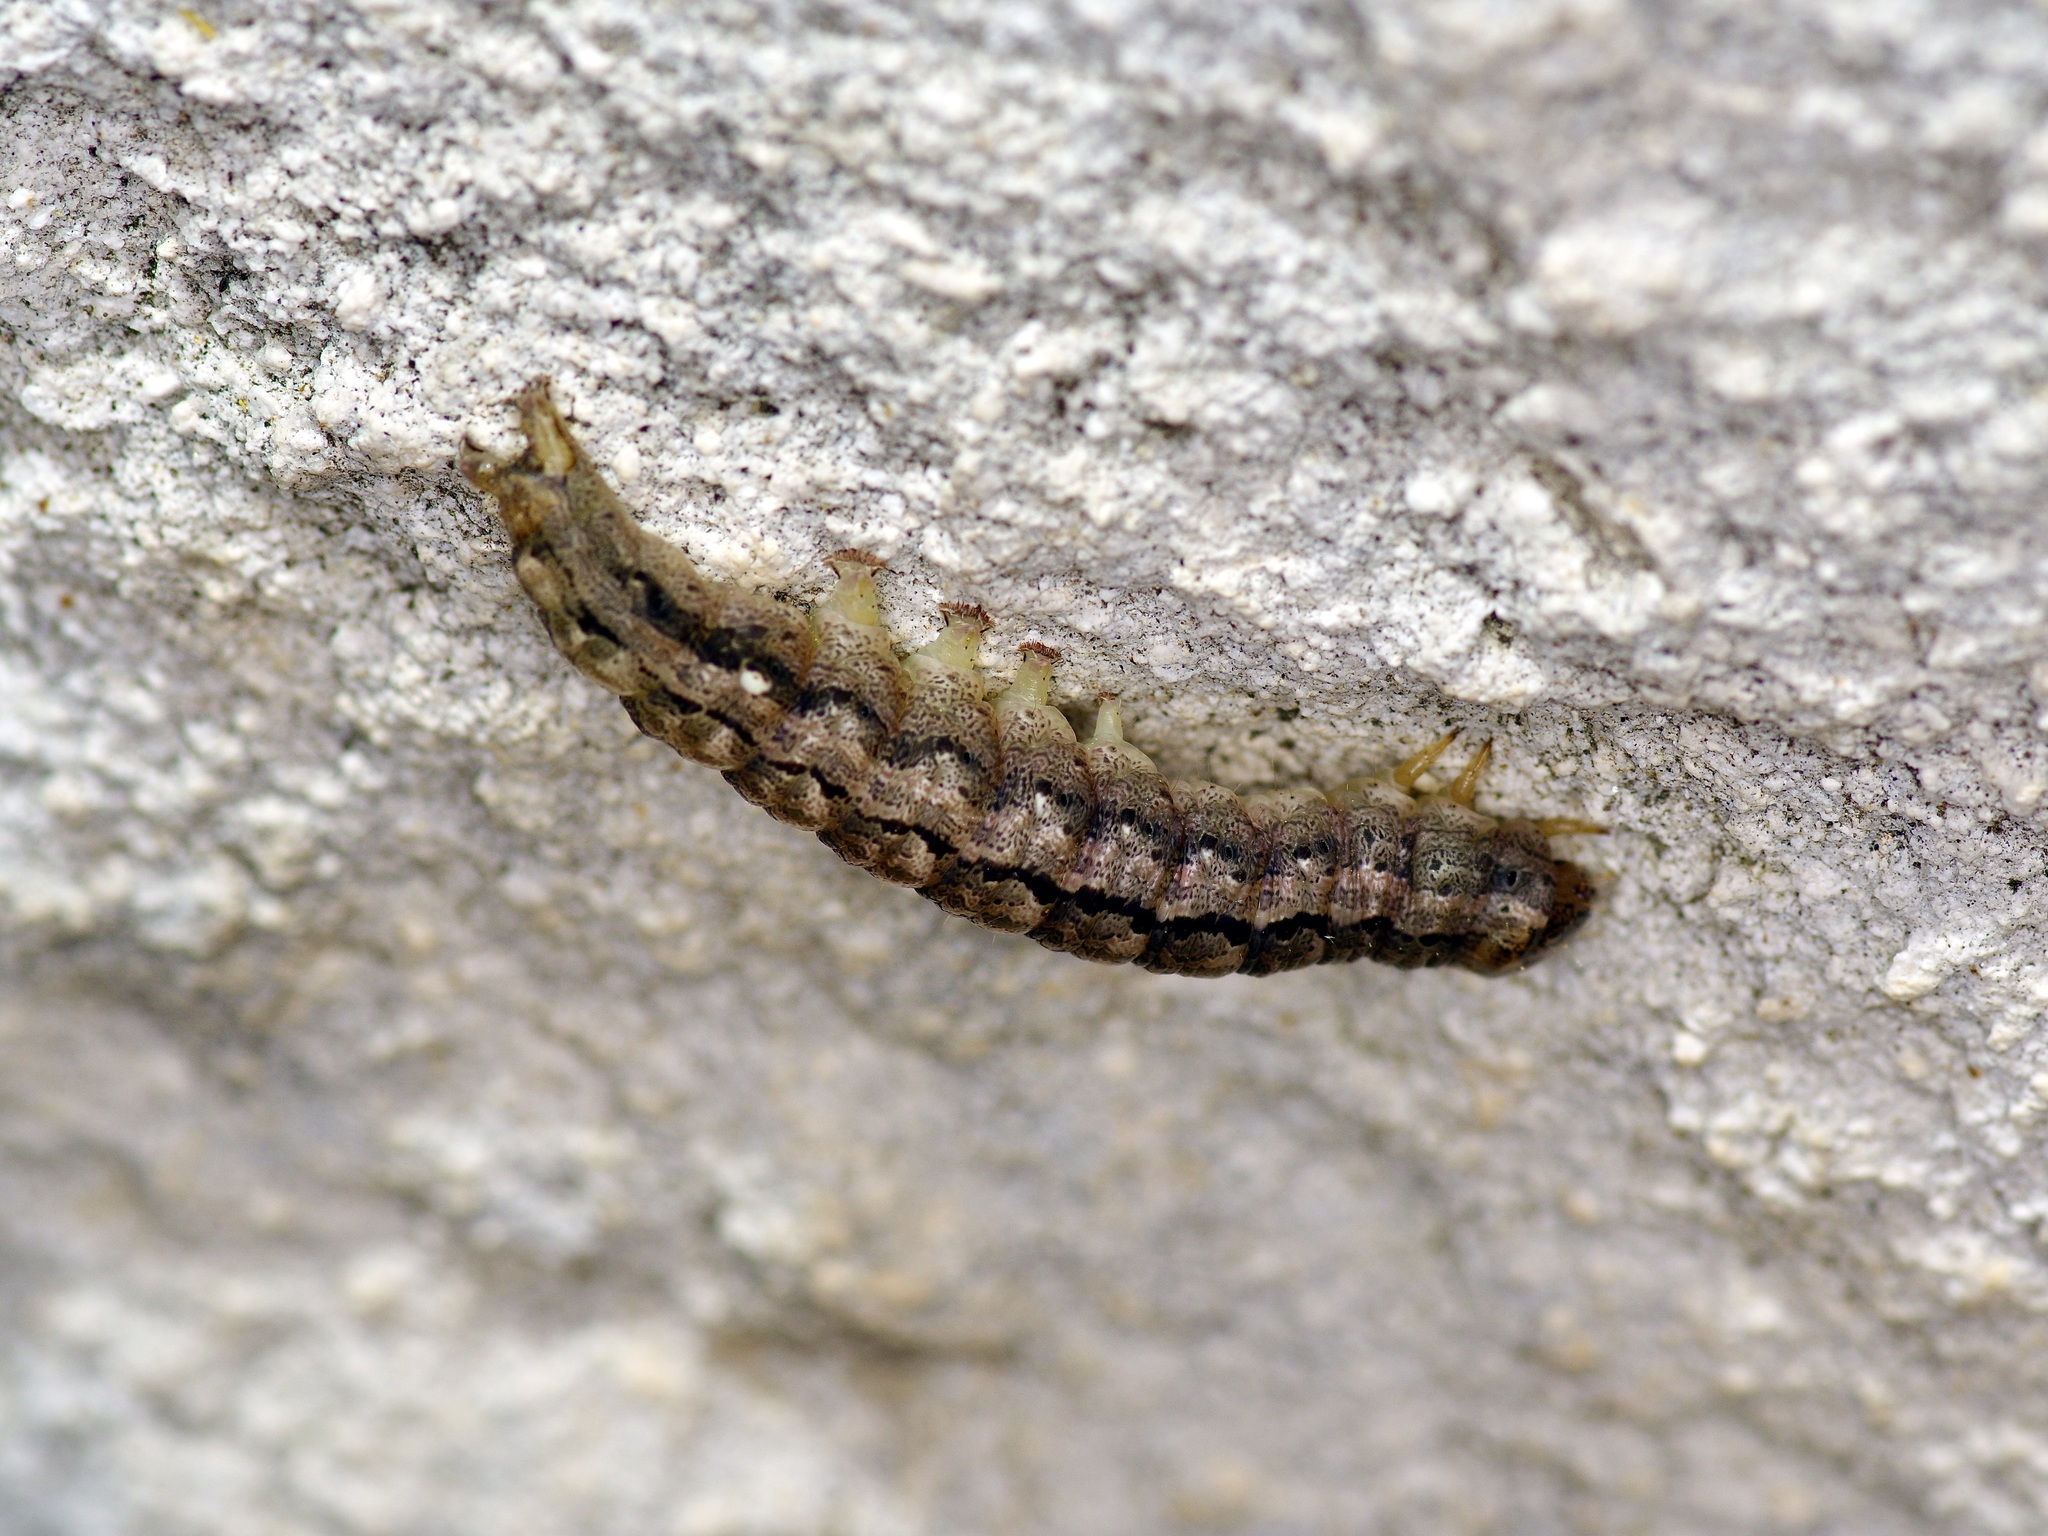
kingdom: Animalia
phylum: Arthropoda
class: Insecta
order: Lepidoptera
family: Erebidae
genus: Phoberia
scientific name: Phoberia atomaris
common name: Common oak moth
